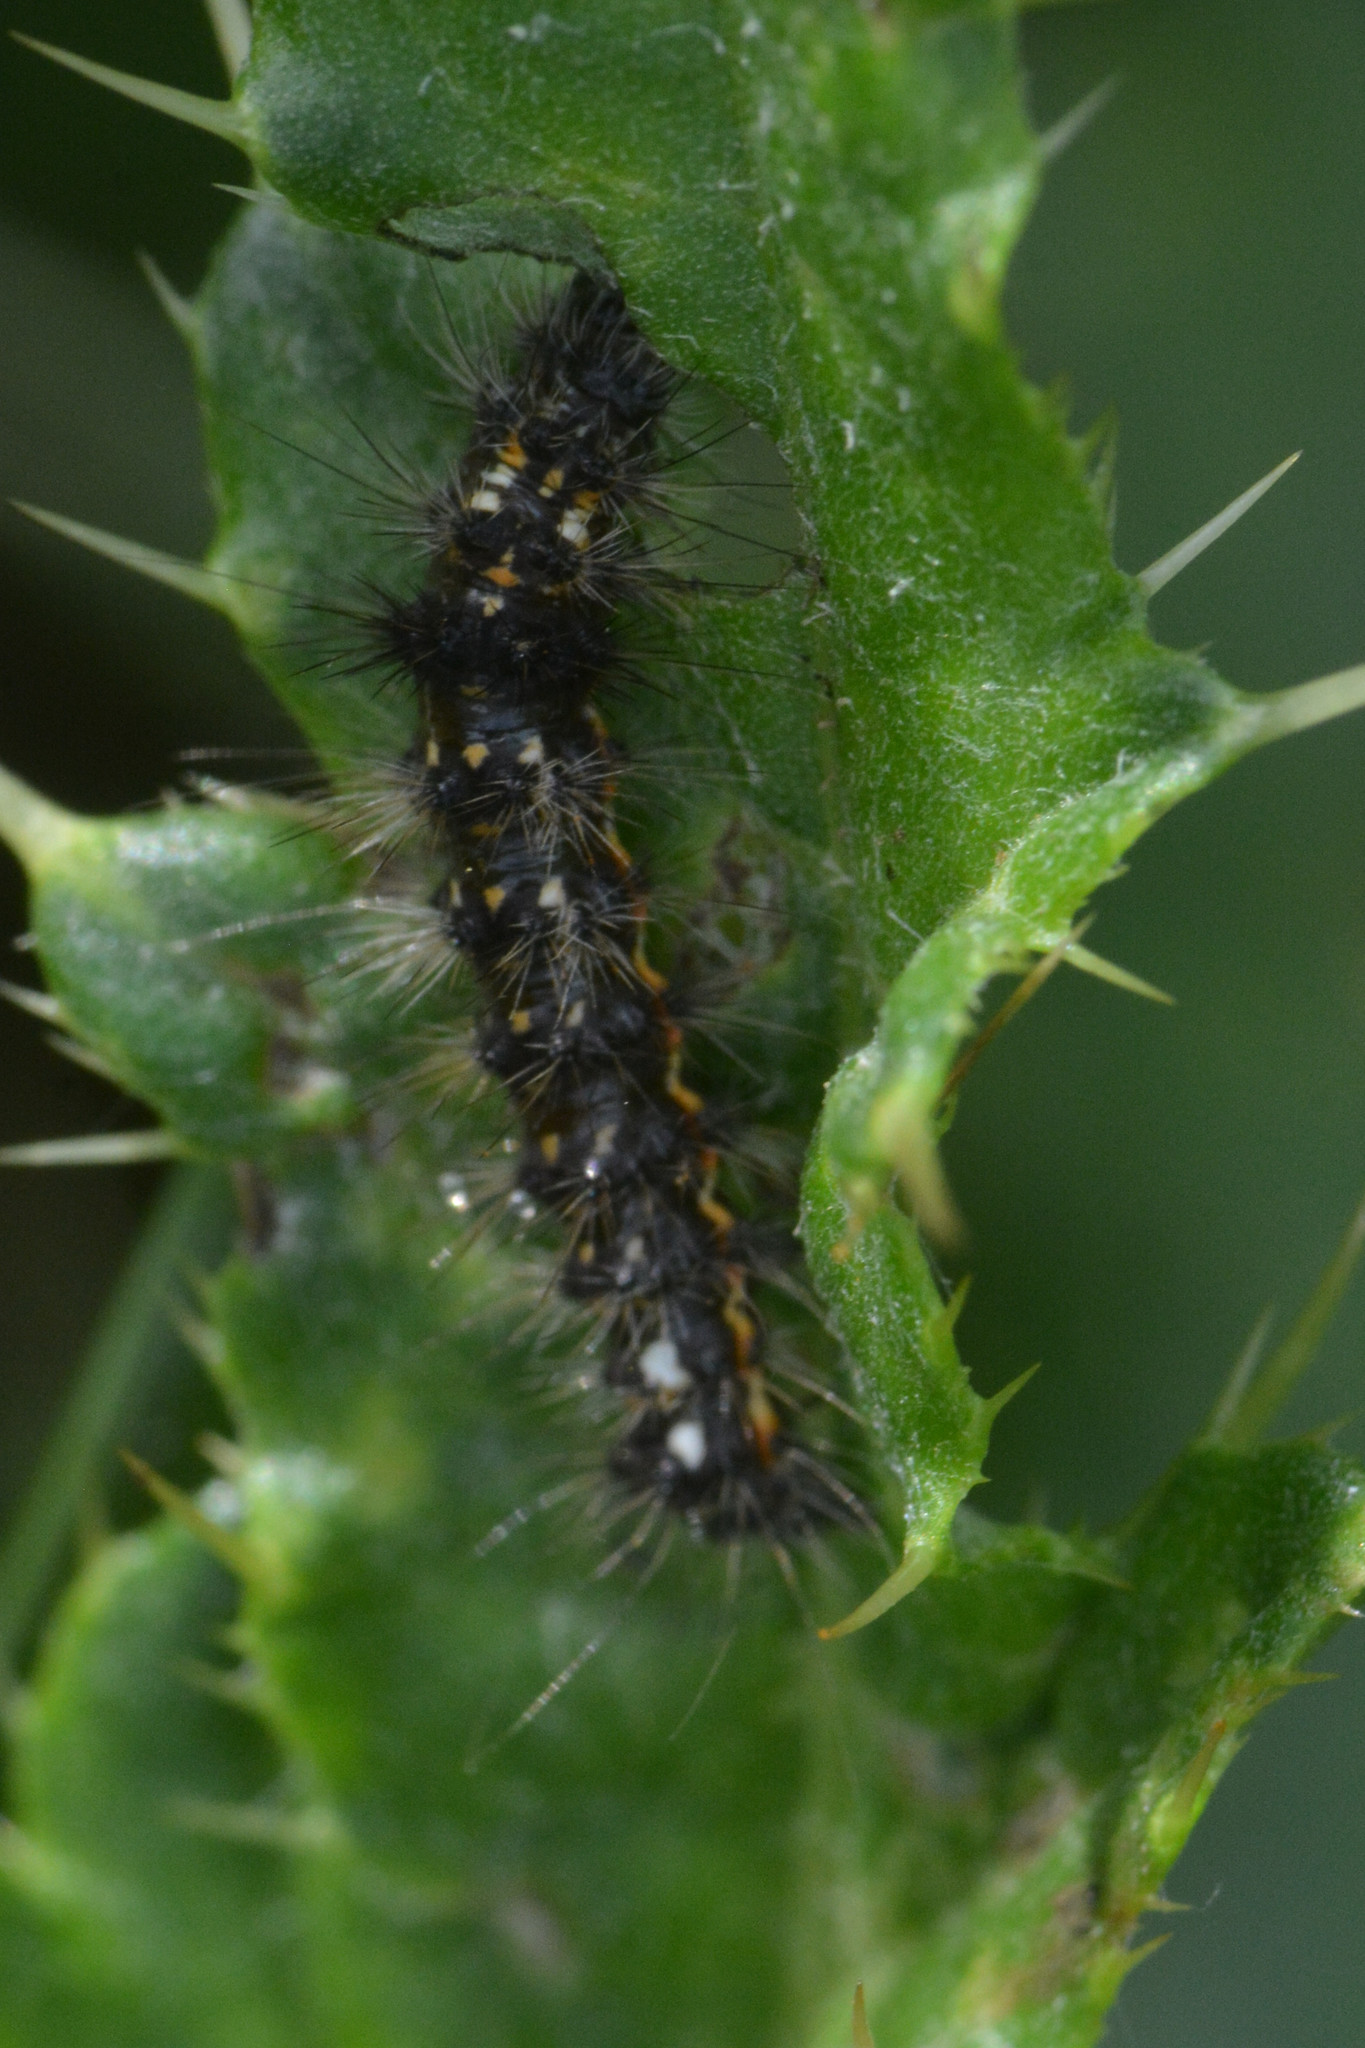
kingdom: Animalia
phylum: Arthropoda
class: Insecta
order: Lepidoptera
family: Noctuidae
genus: Acronicta
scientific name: Acronicta rumicis
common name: Knot grass
